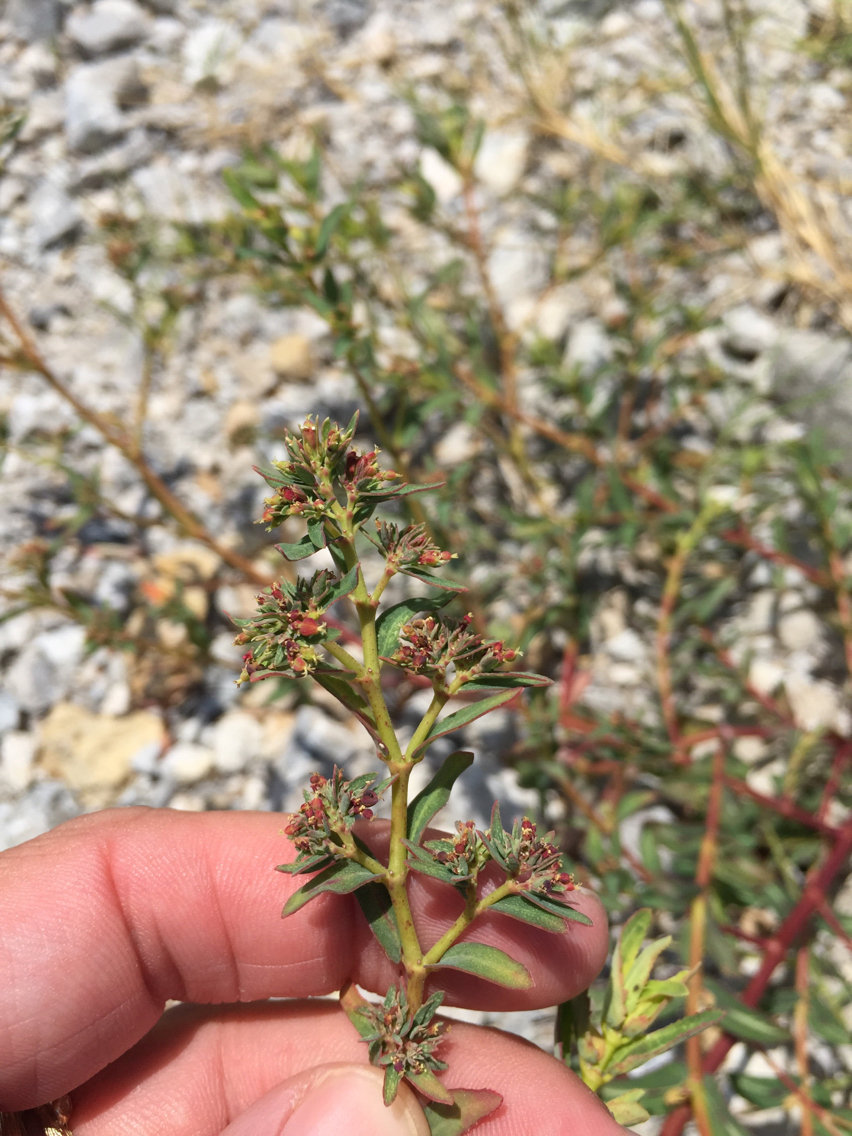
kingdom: Plantae
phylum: Tracheophyta
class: Magnoliopsida
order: Malpighiales
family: Euphorbiaceae
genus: Euphorbia
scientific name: Euphorbia hyssopifolia
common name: Hyssopleaf sandmat
